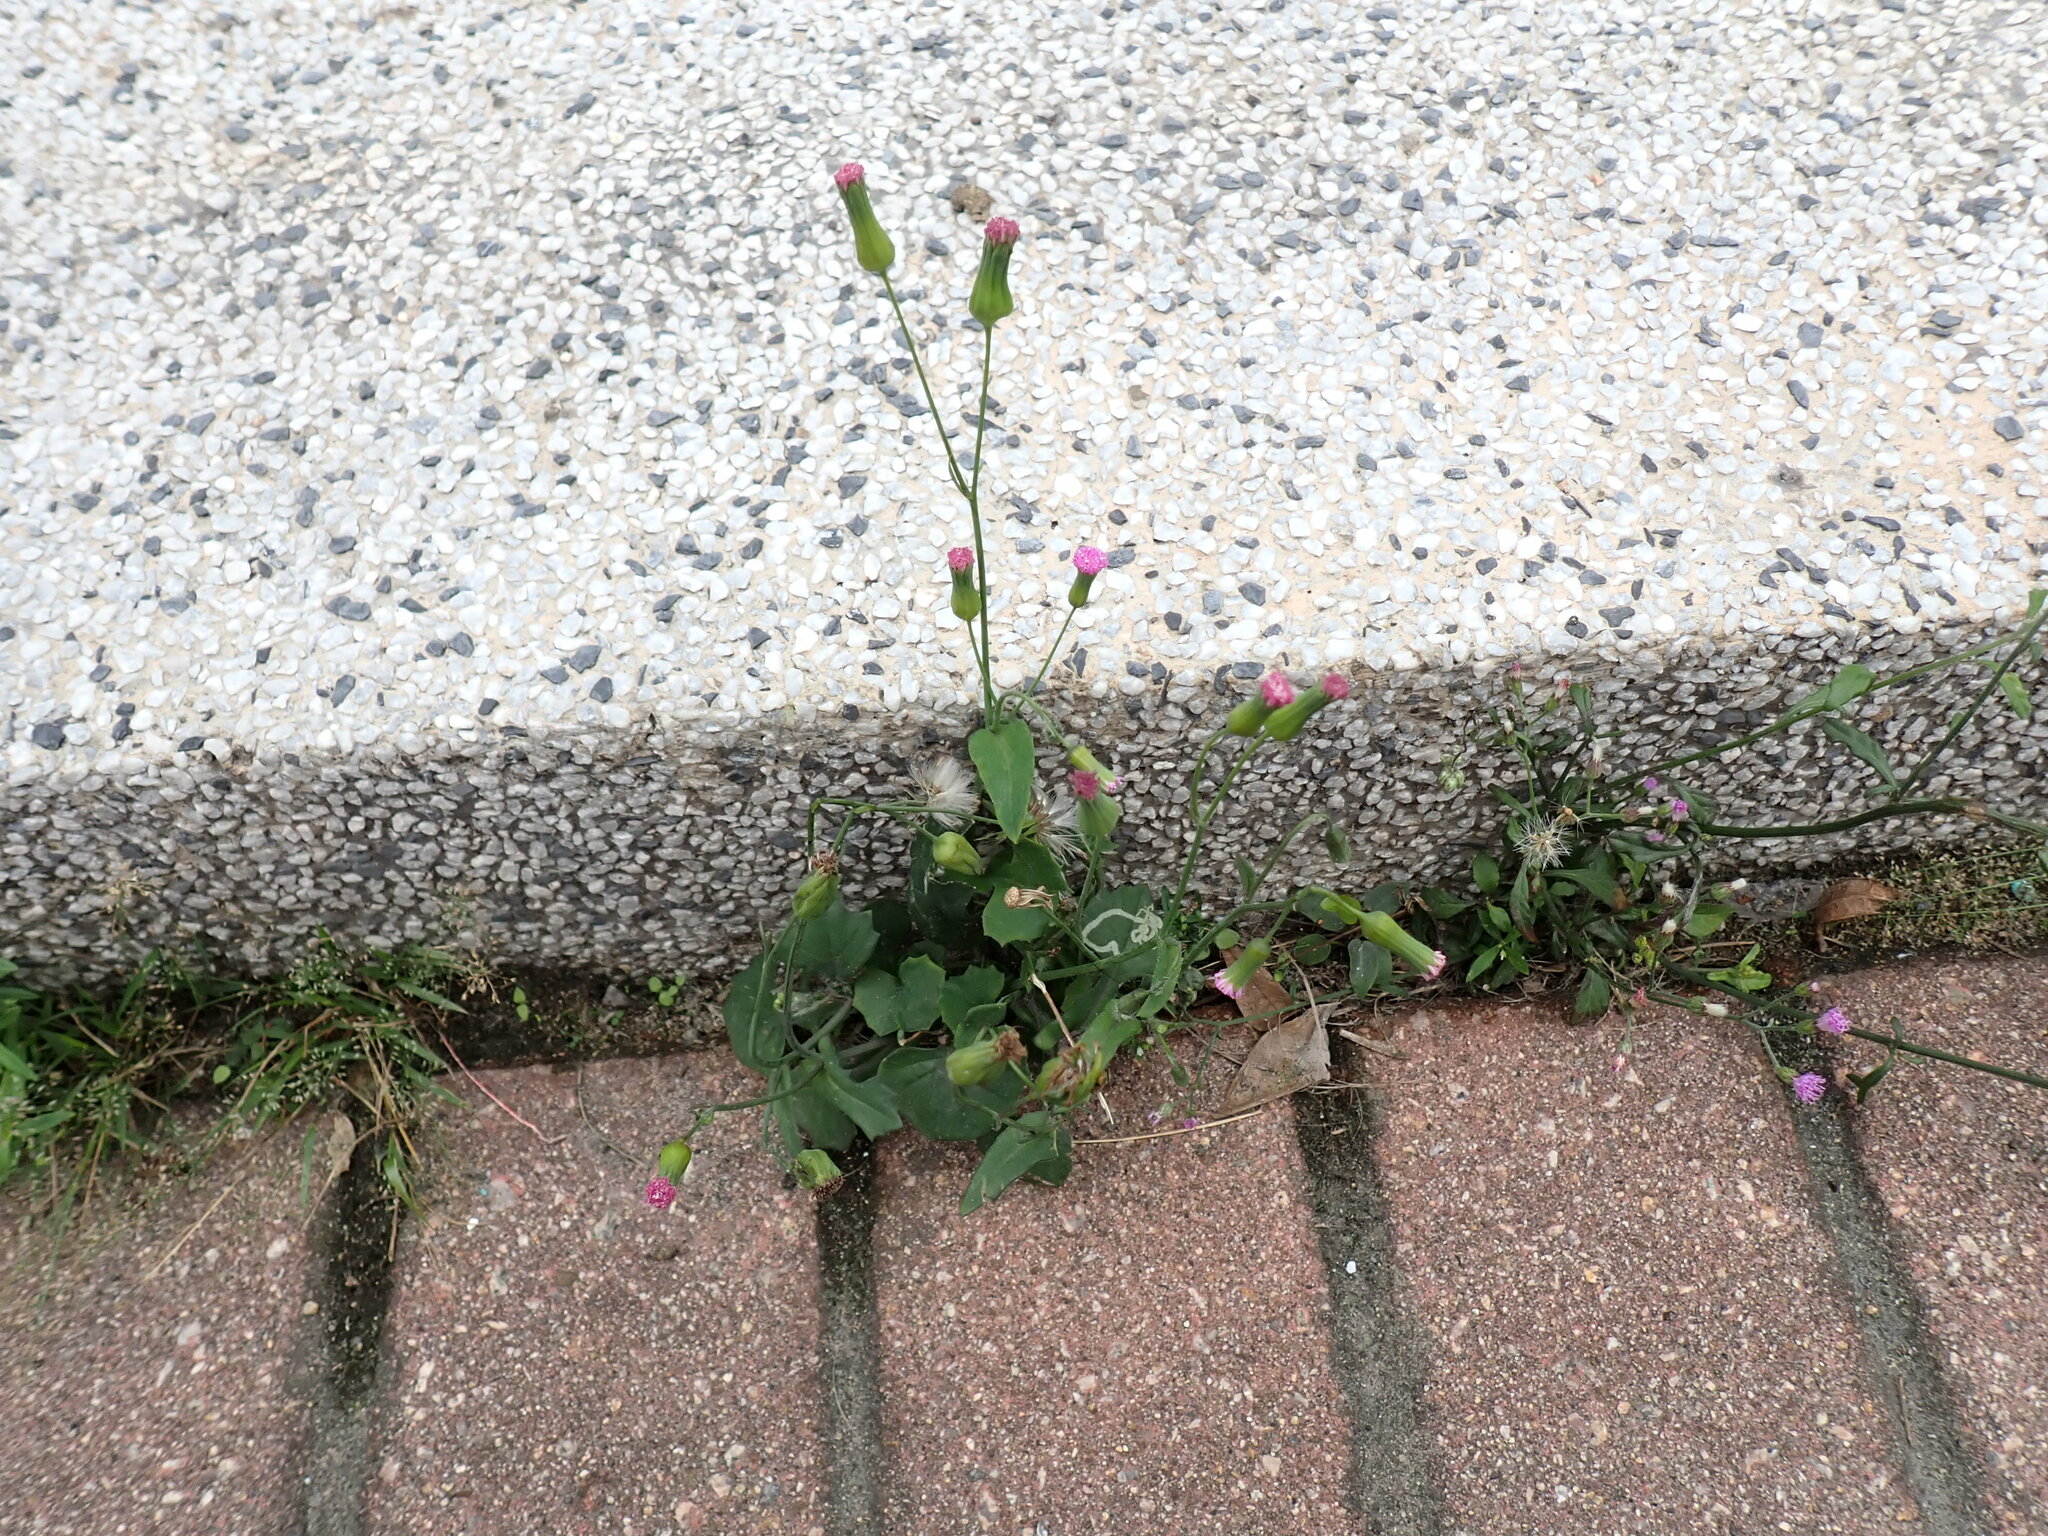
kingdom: Plantae
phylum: Tracheophyta
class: Magnoliopsida
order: Asterales
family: Asteraceae
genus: Emilia
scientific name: Emilia sonchifolia
